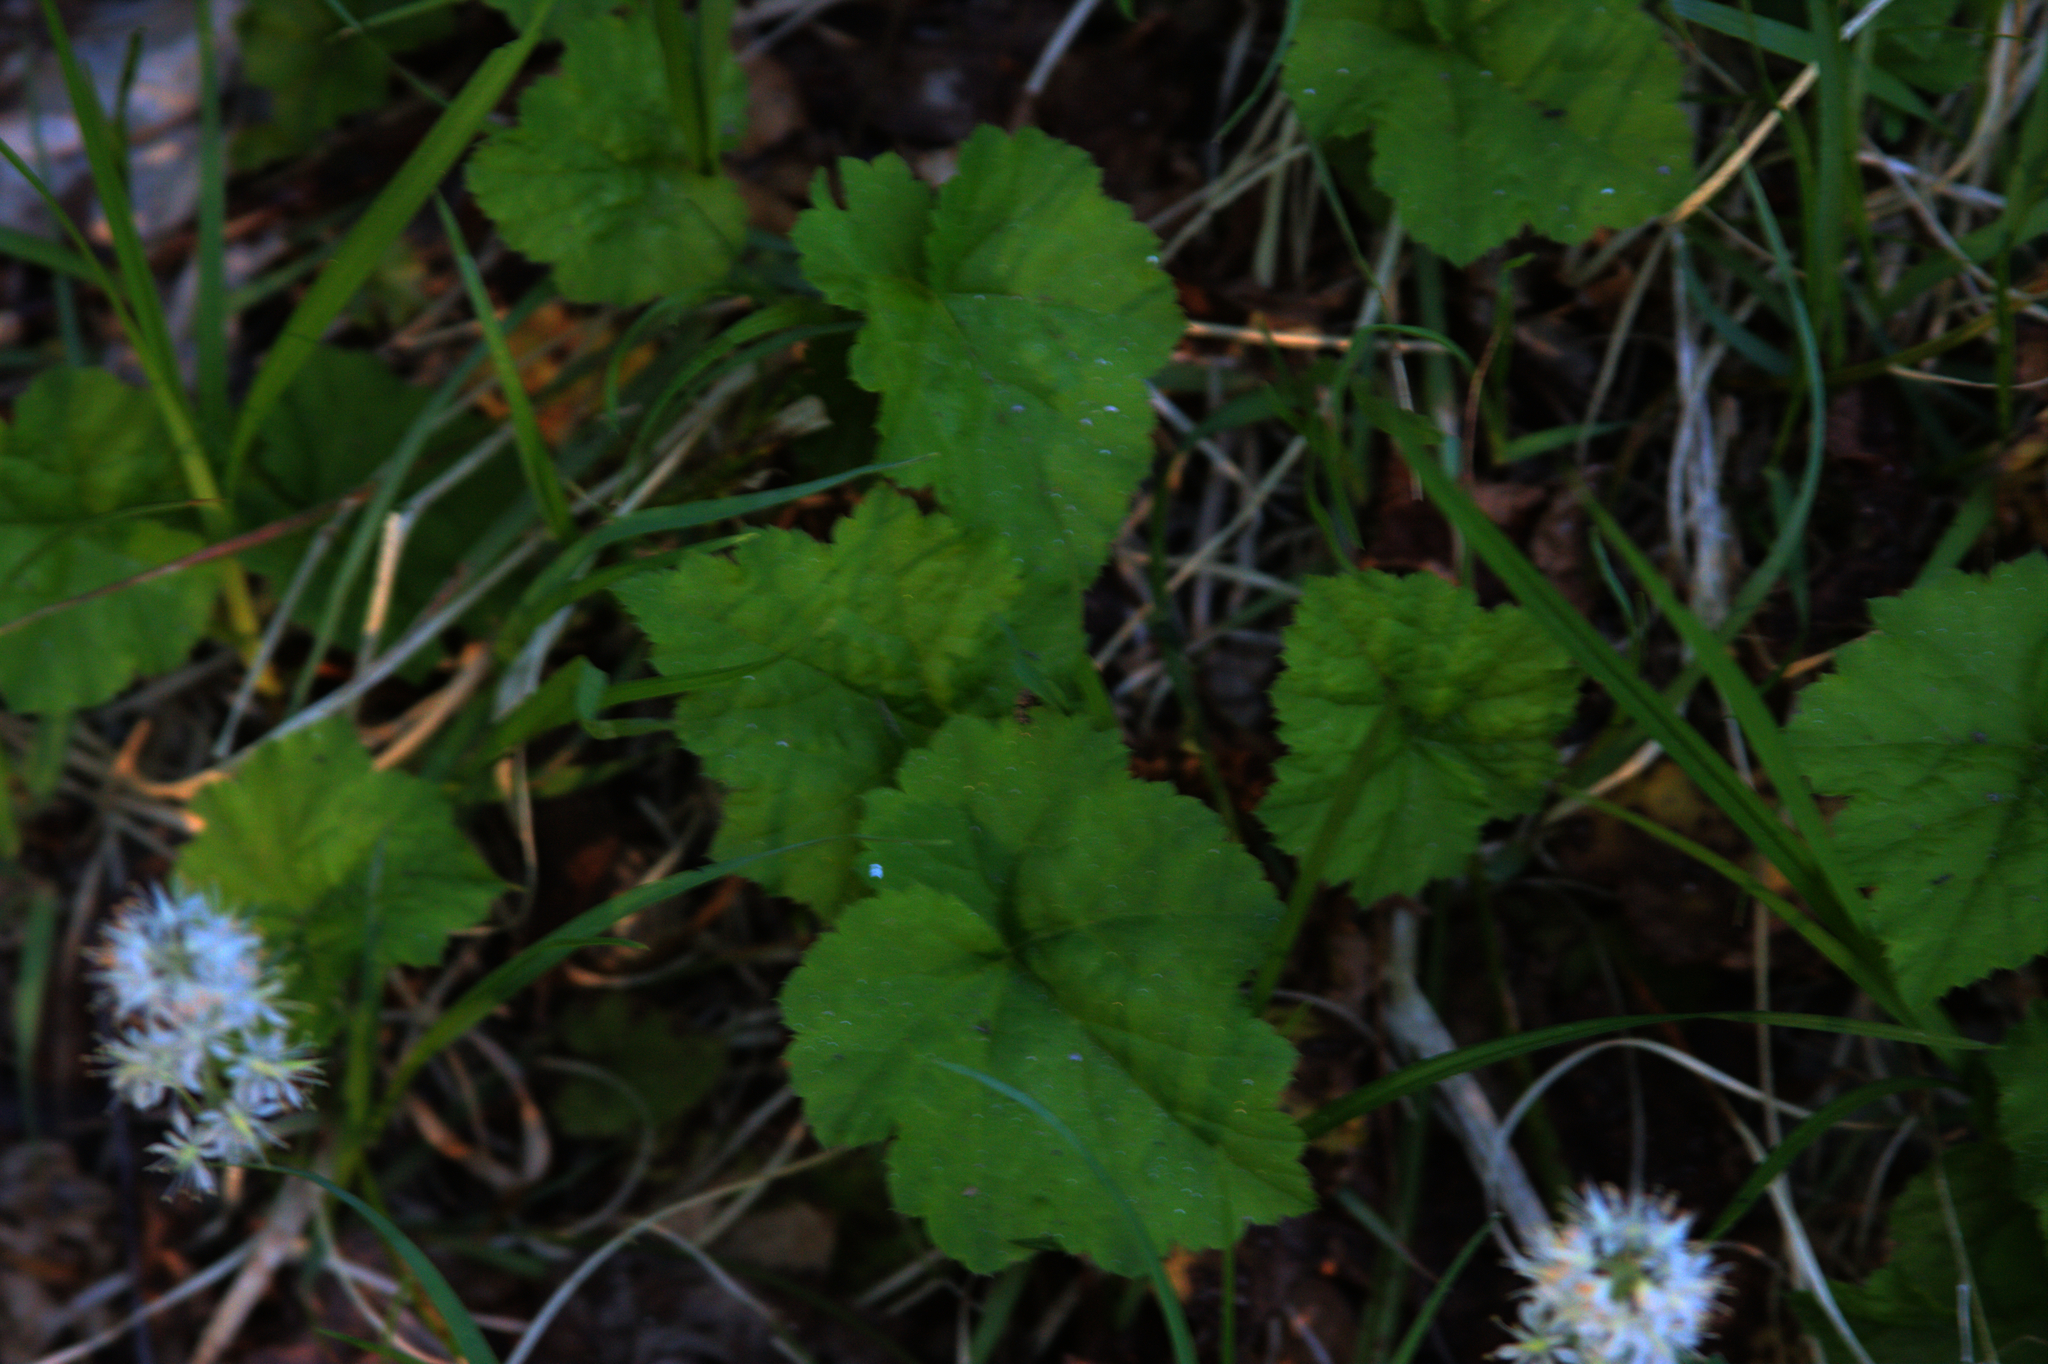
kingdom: Plantae
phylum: Tracheophyta
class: Magnoliopsida
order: Saxifragales
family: Saxifragaceae
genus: Tiarella
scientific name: Tiarella stolonifera
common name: Stoloniferous foamflower
